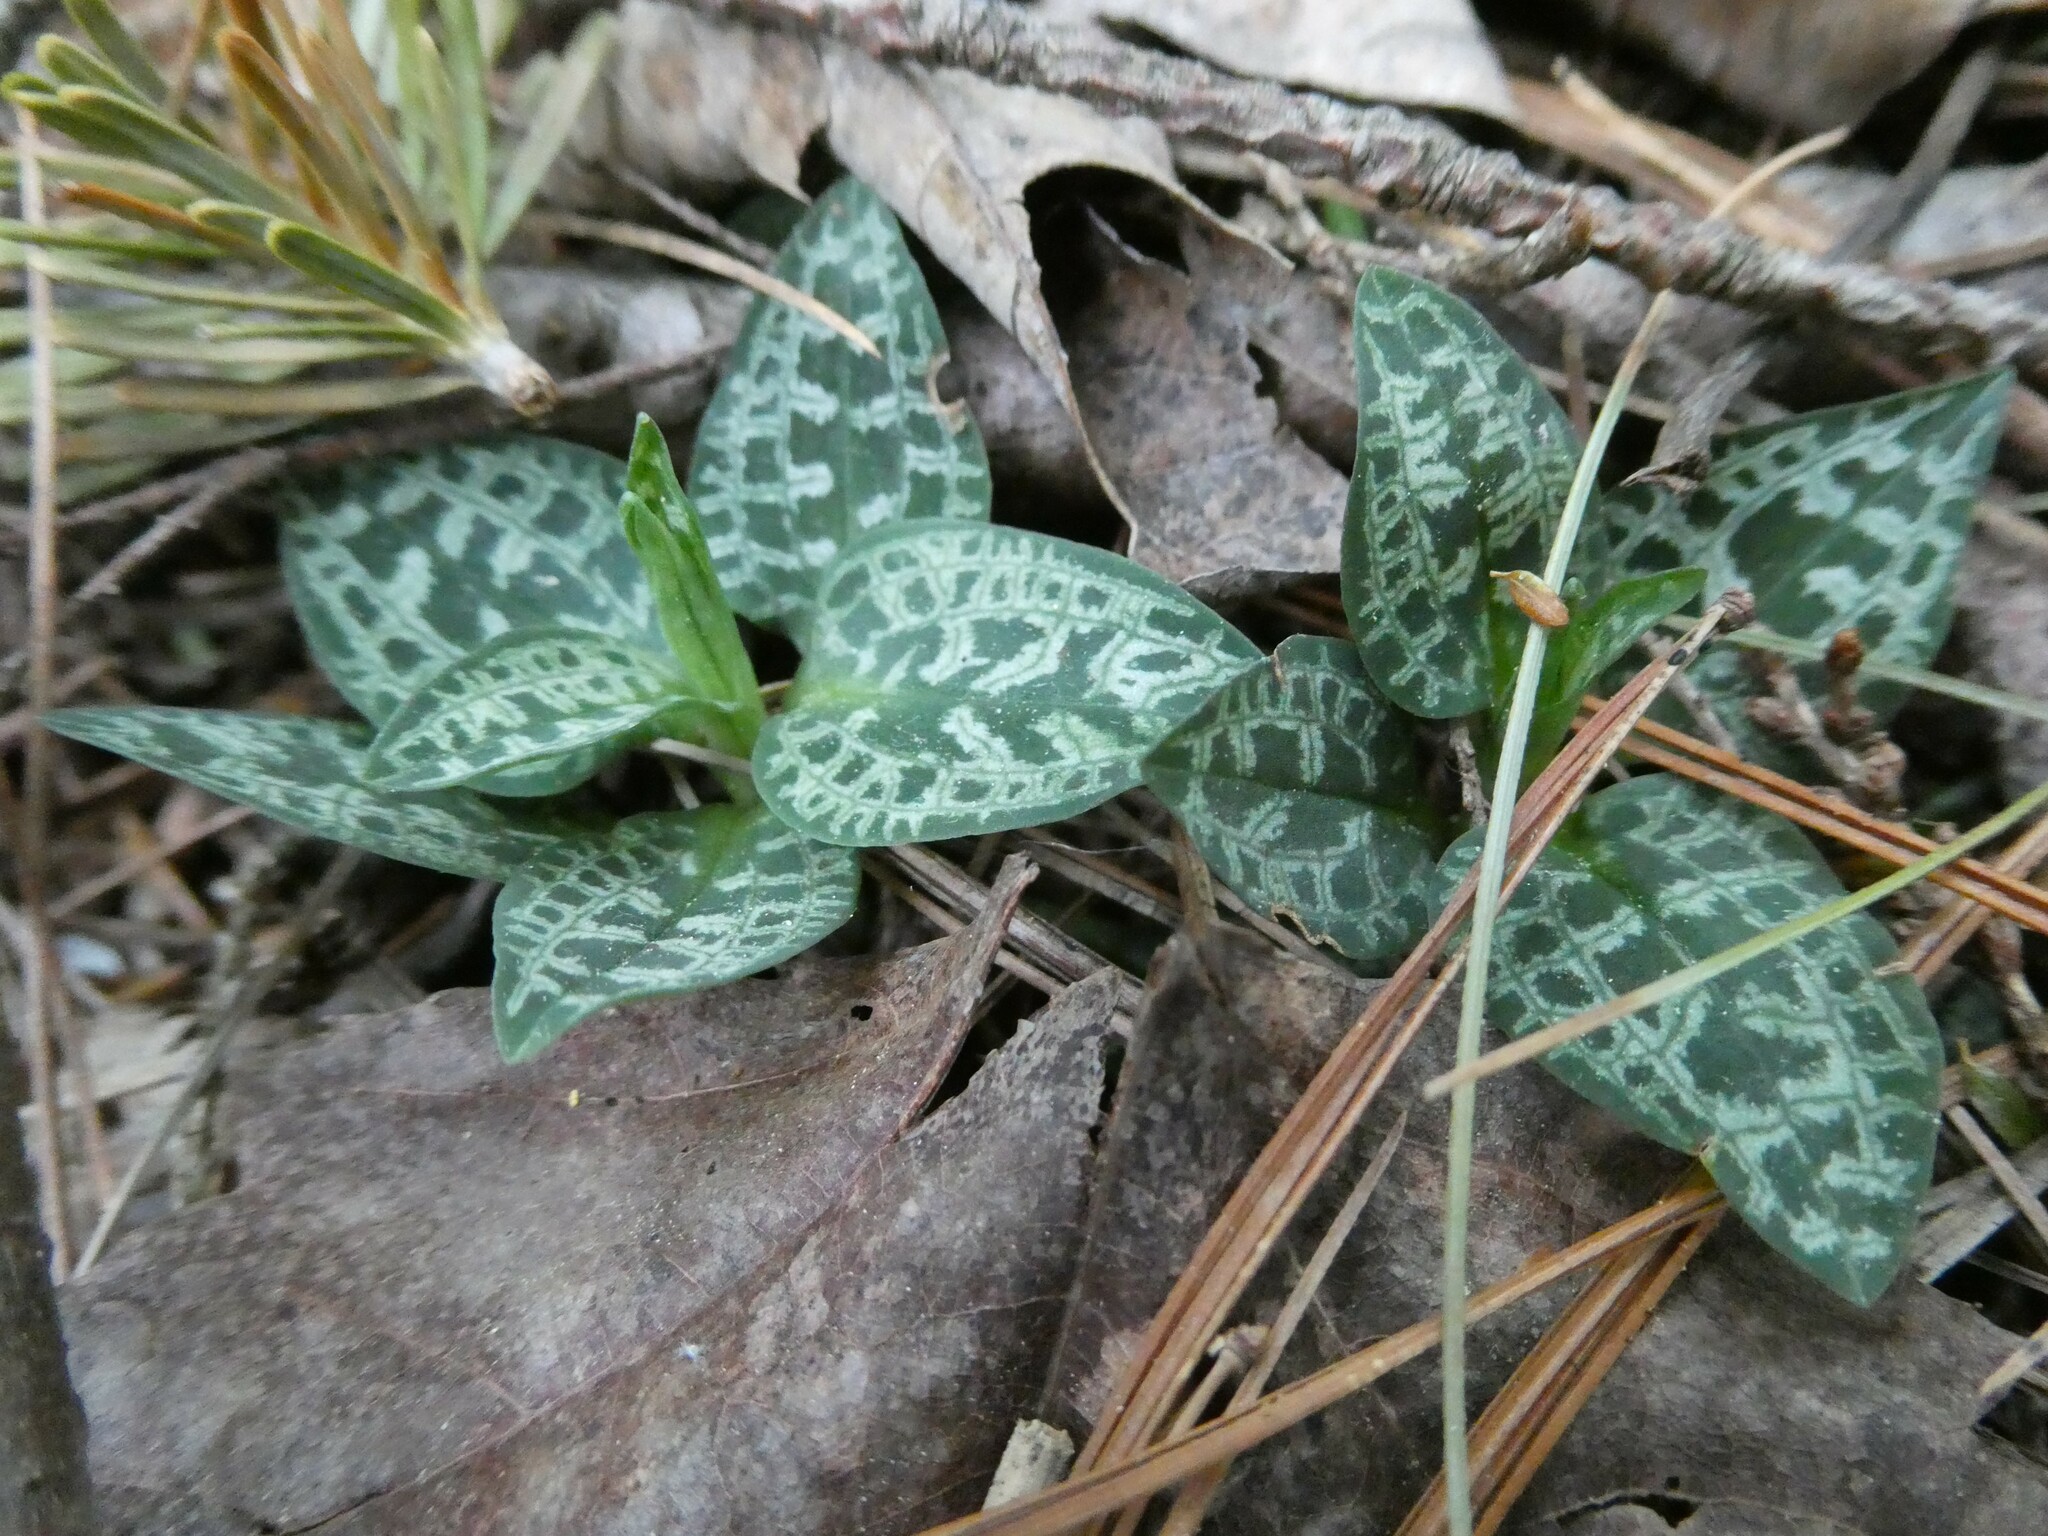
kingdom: Plantae
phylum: Tracheophyta
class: Liliopsida
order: Asparagales
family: Orchidaceae
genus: Goodyera
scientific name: Goodyera tesselata
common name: Checkered rattlesnake-plantain
